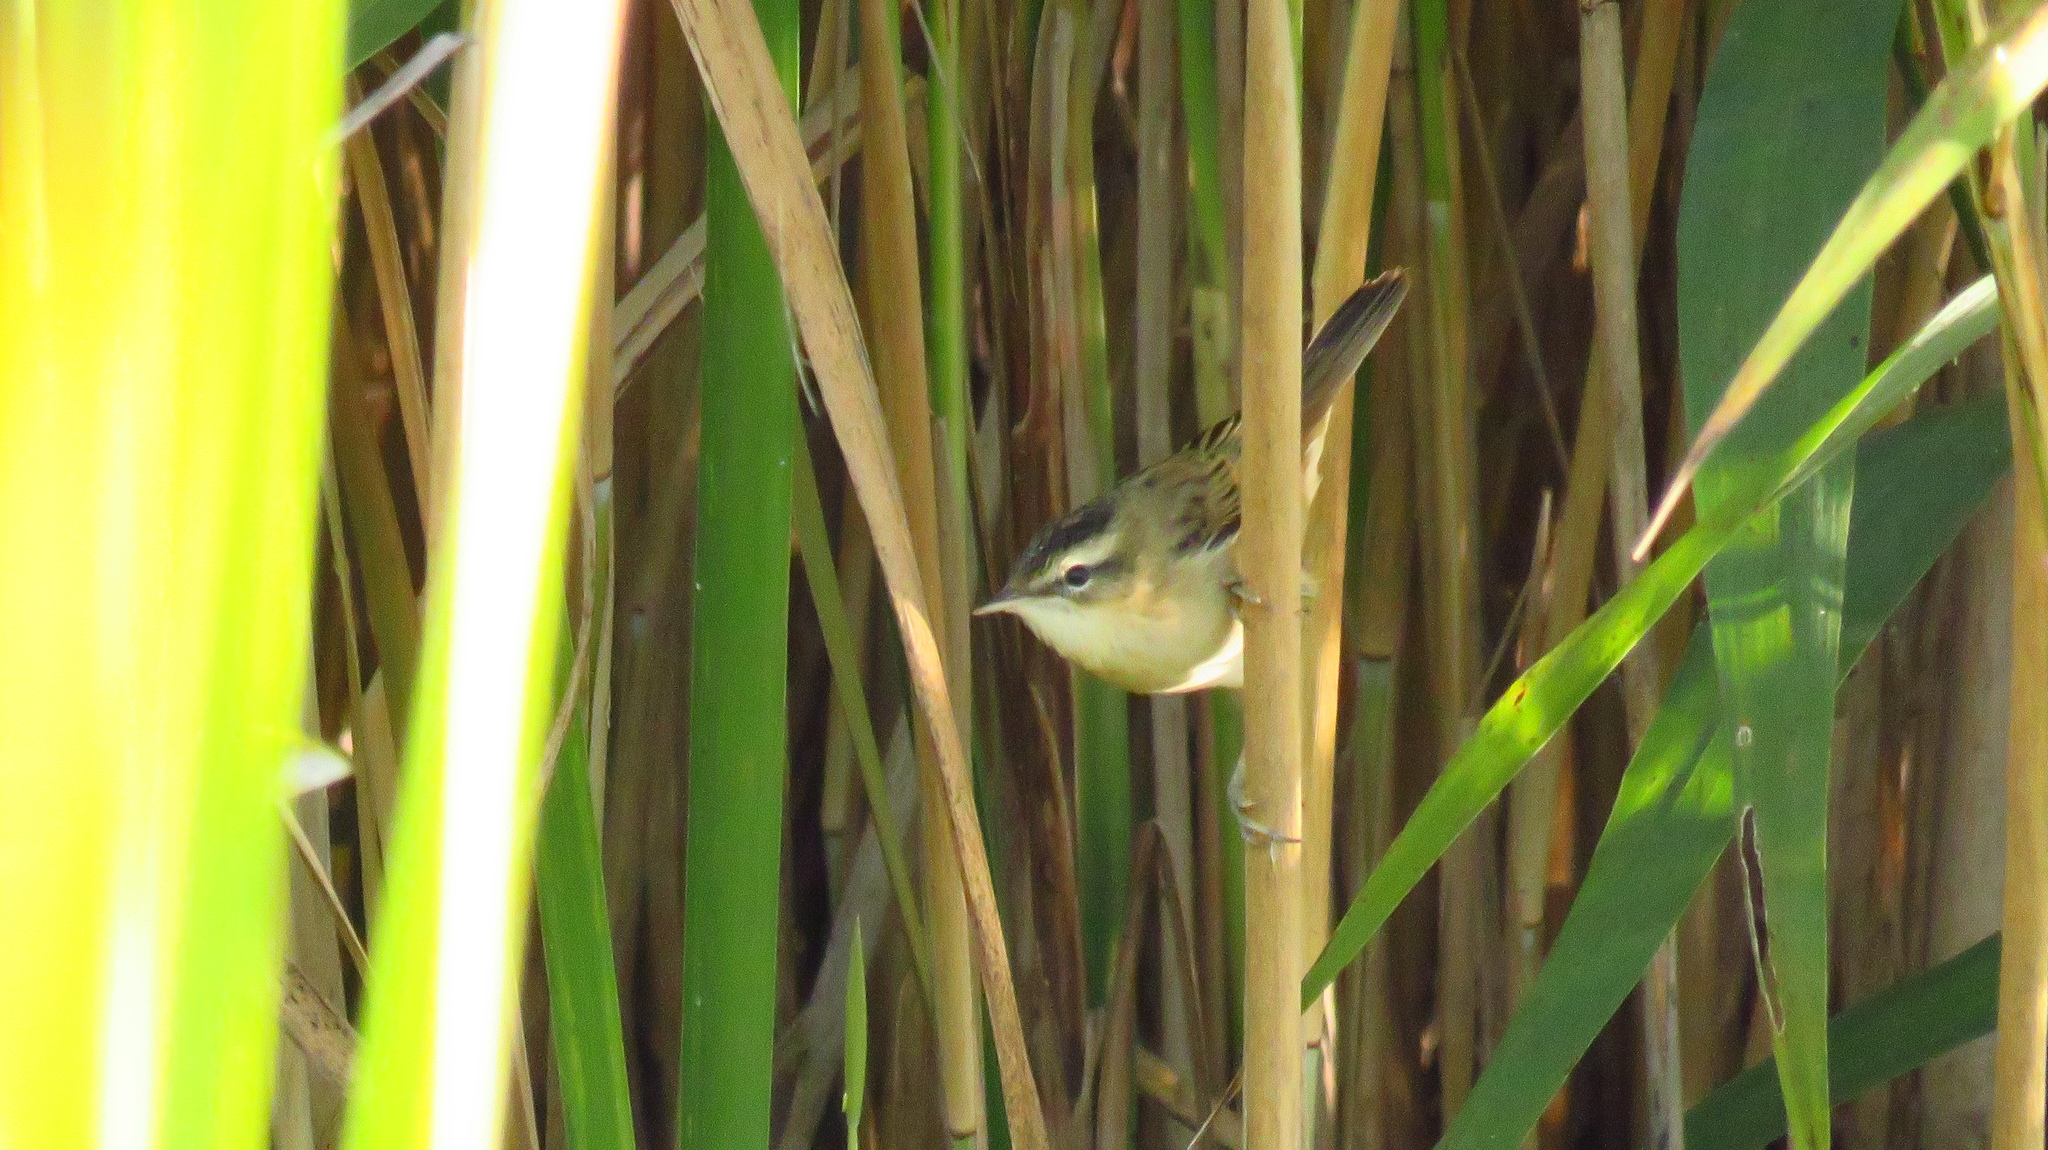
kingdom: Animalia
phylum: Chordata
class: Aves
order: Passeriformes
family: Acrocephalidae
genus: Acrocephalus
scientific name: Acrocephalus schoenobaenus
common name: Sedge warbler
